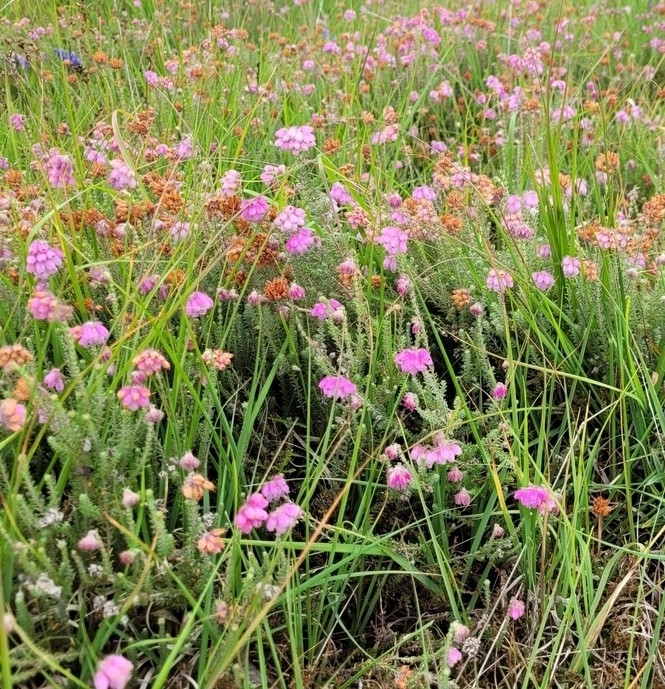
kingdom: Plantae
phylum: Tracheophyta
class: Magnoliopsida
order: Ericales
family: Ericaceae
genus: Erica
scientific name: Erica tetralix
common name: Cross-leaved heath
